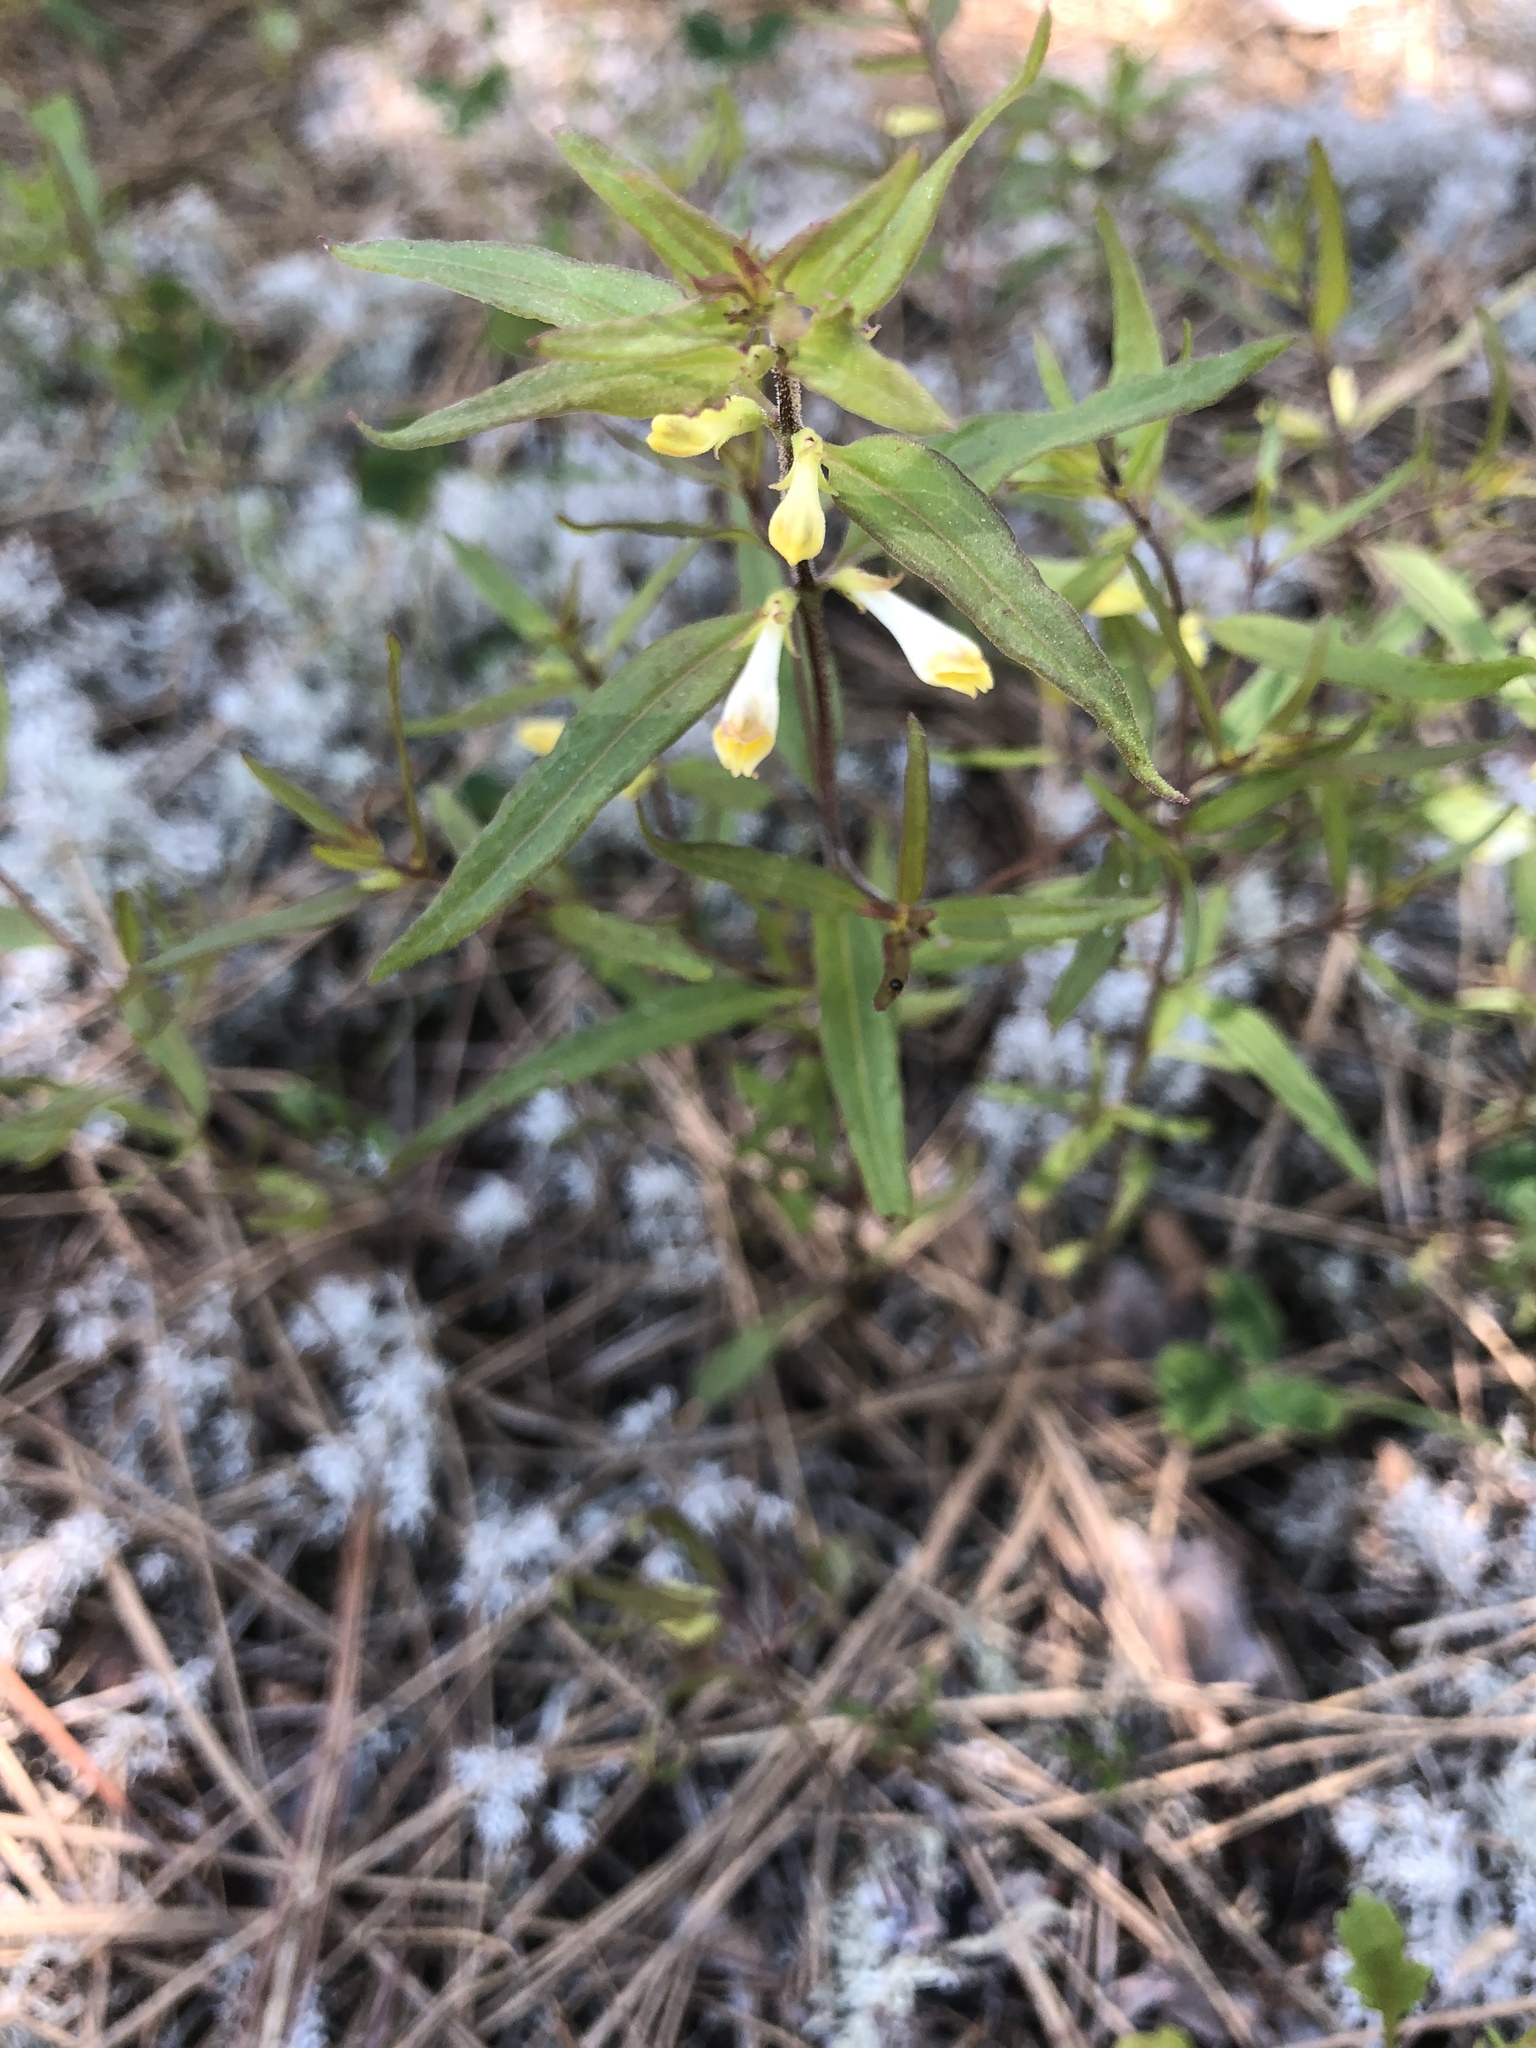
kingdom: Plantae
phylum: Tracheophyta
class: Magnoliopsida
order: Lamiales
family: Orobanchaceae
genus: Melampyrum
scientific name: Melampyrum lineare
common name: American cow-wheat
